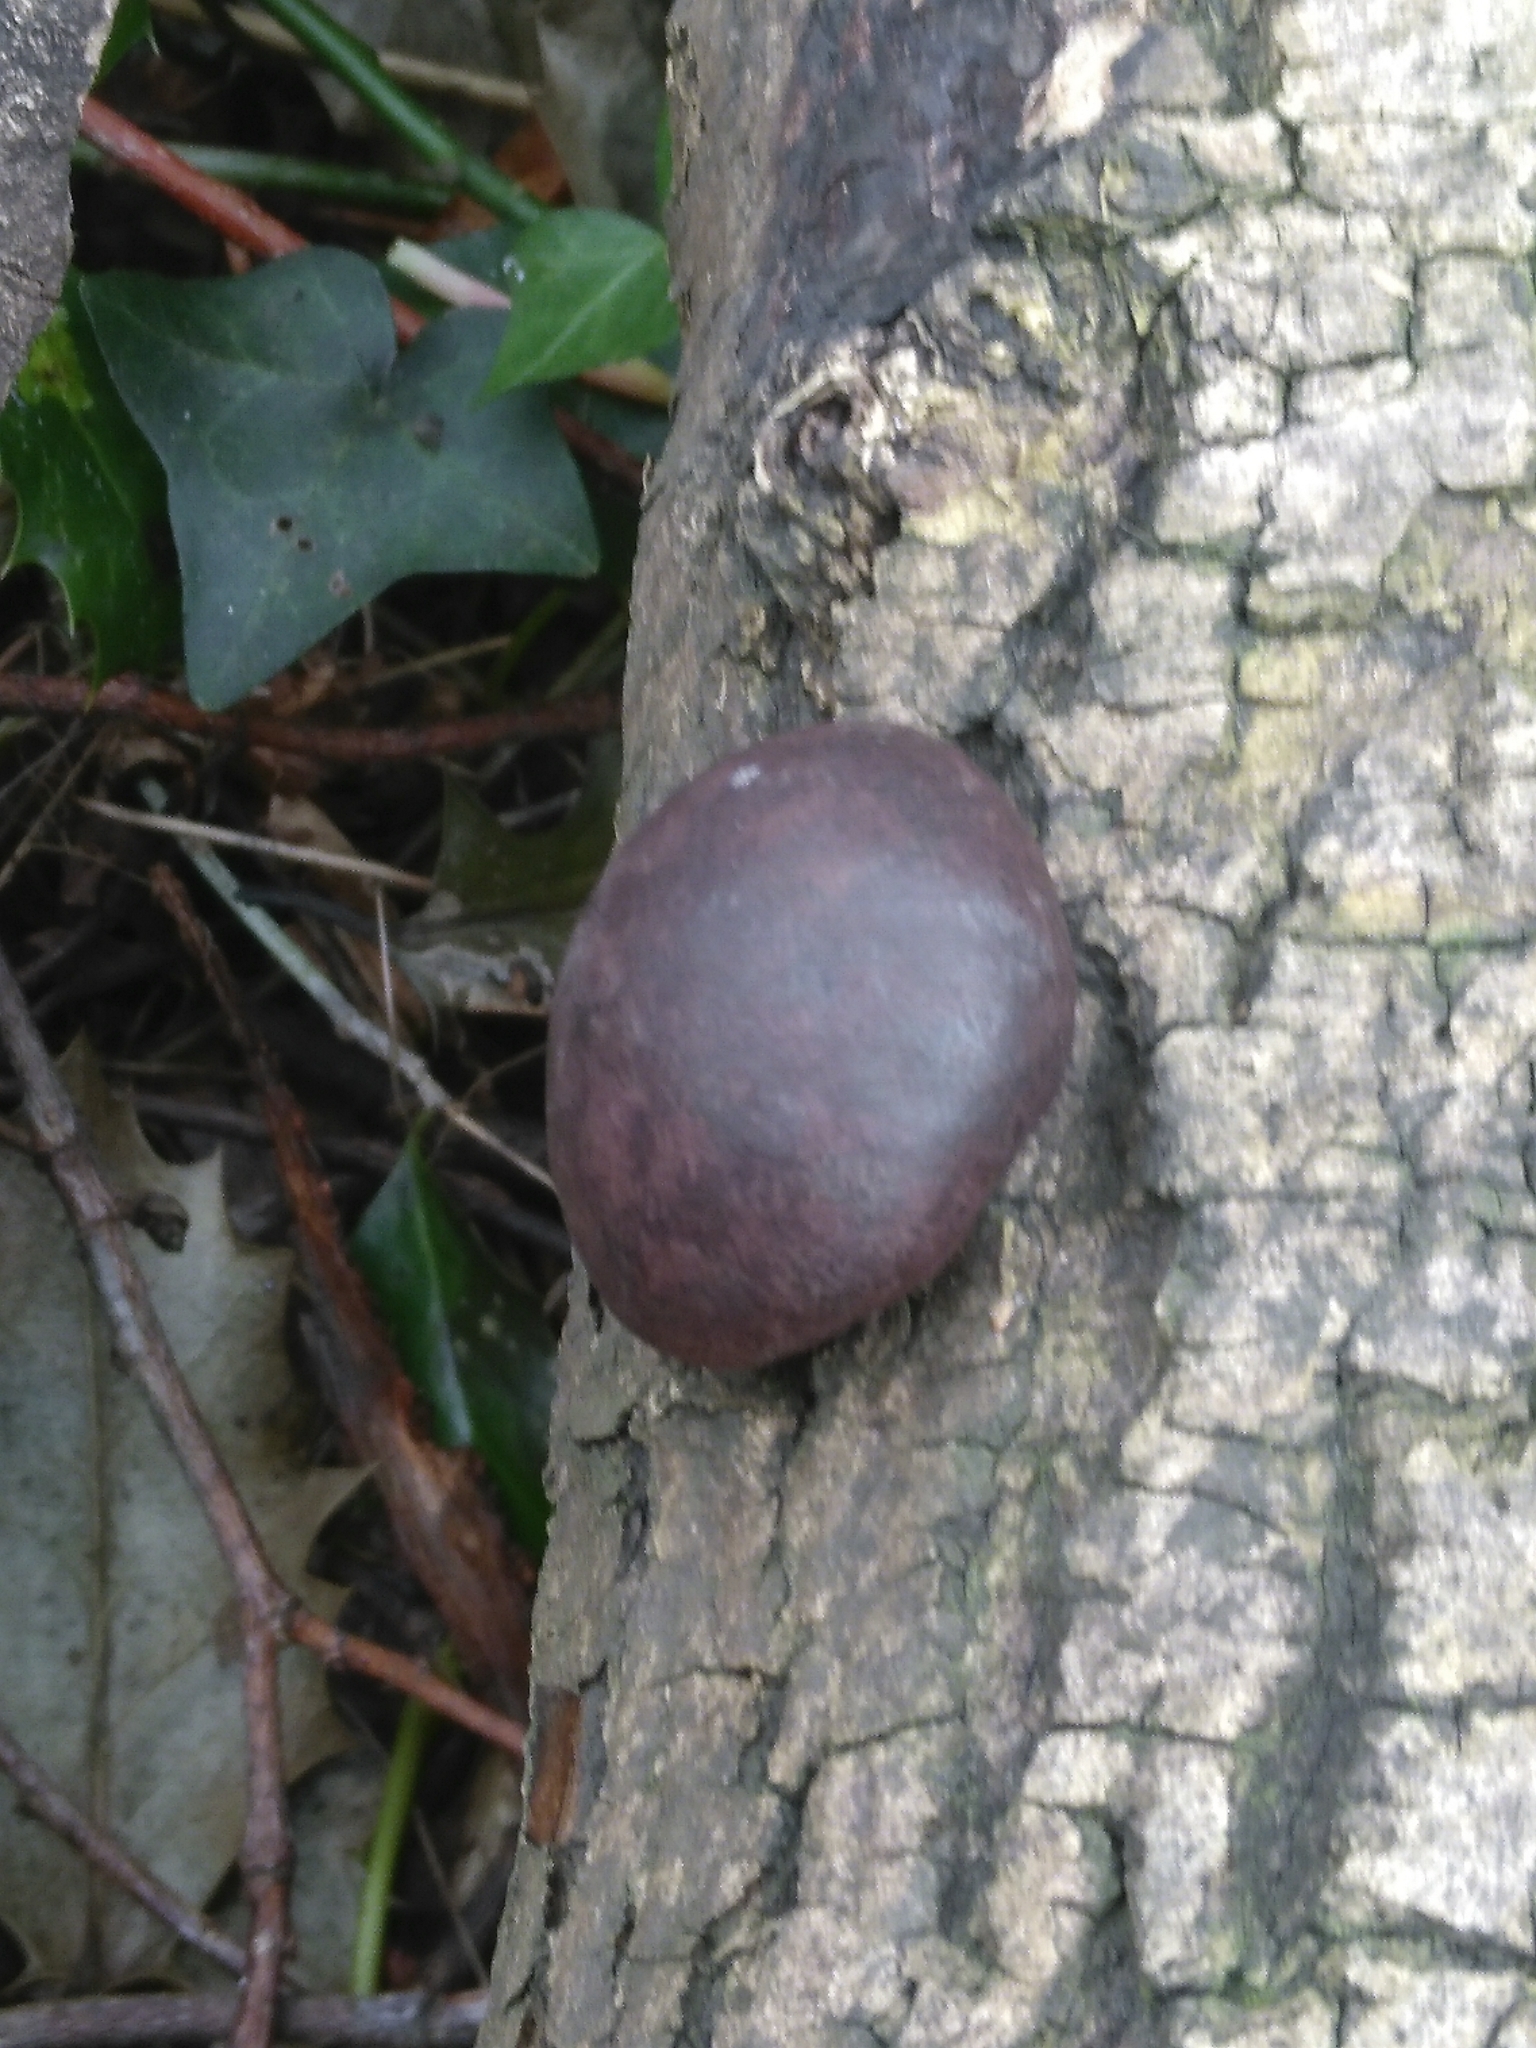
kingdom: Fungi
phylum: Ascomycota
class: Sordariomycetes
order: Xylariales
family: Hypoxylaceae
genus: Daldinia
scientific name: Daldinia concentrica
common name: Cramp balls
